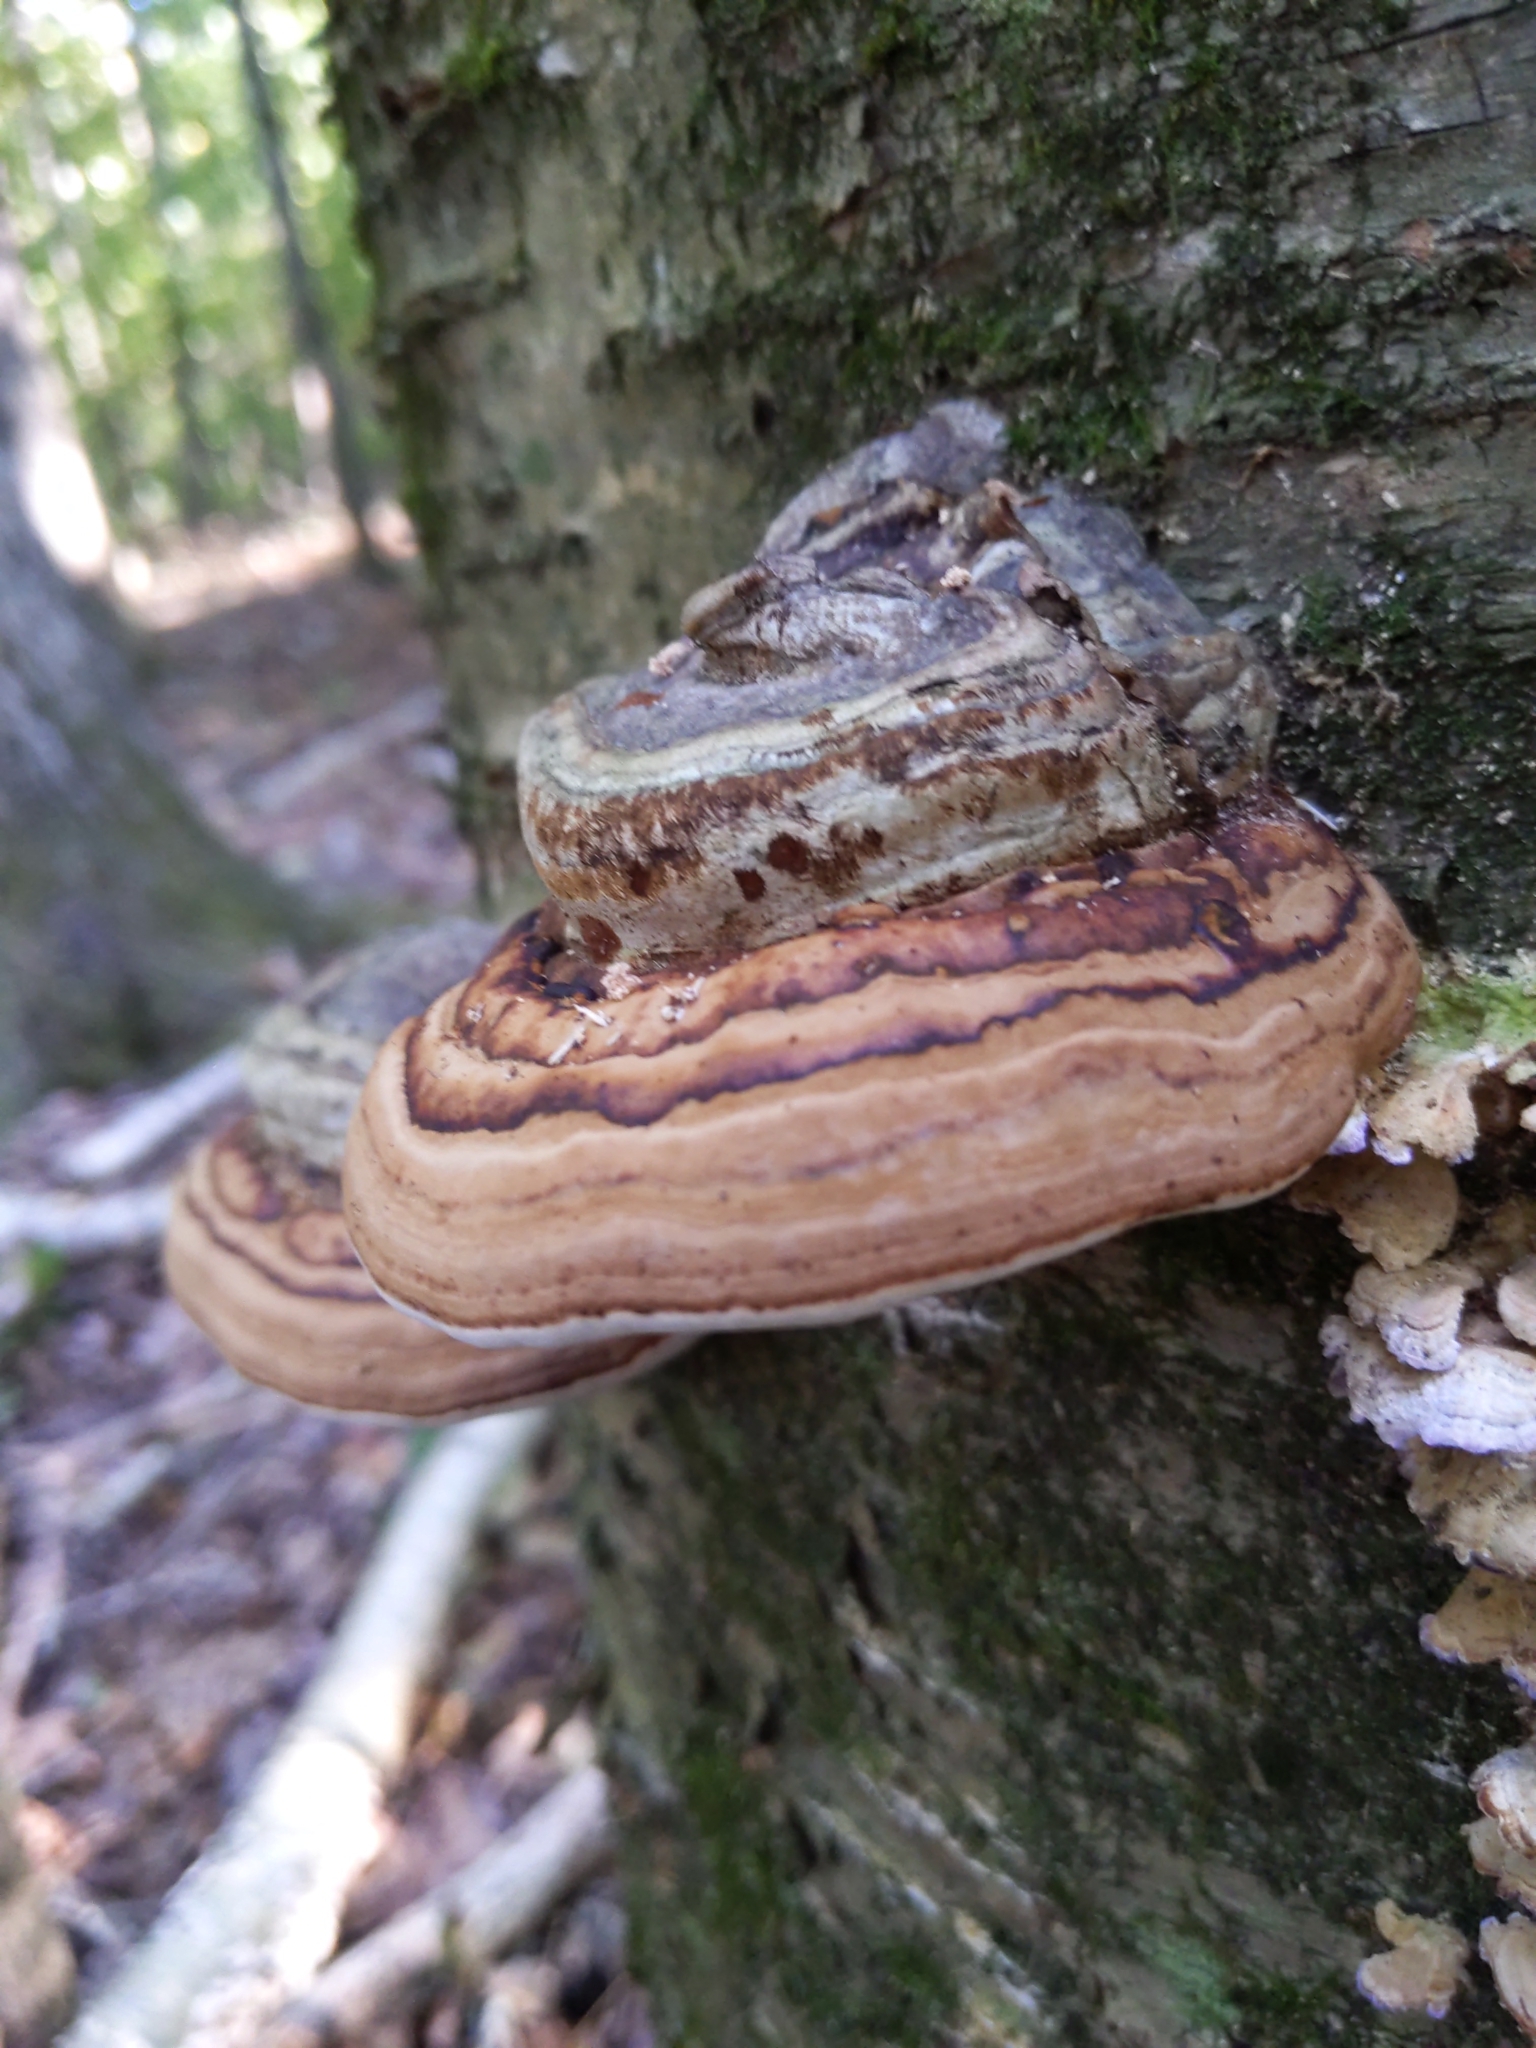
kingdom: Fungi
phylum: Basidiomycota
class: Agaricomycetes
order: Polyporales
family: Polyporaceae
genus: Fomes
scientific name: Fomes fomentarius
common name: Hoof fungus
